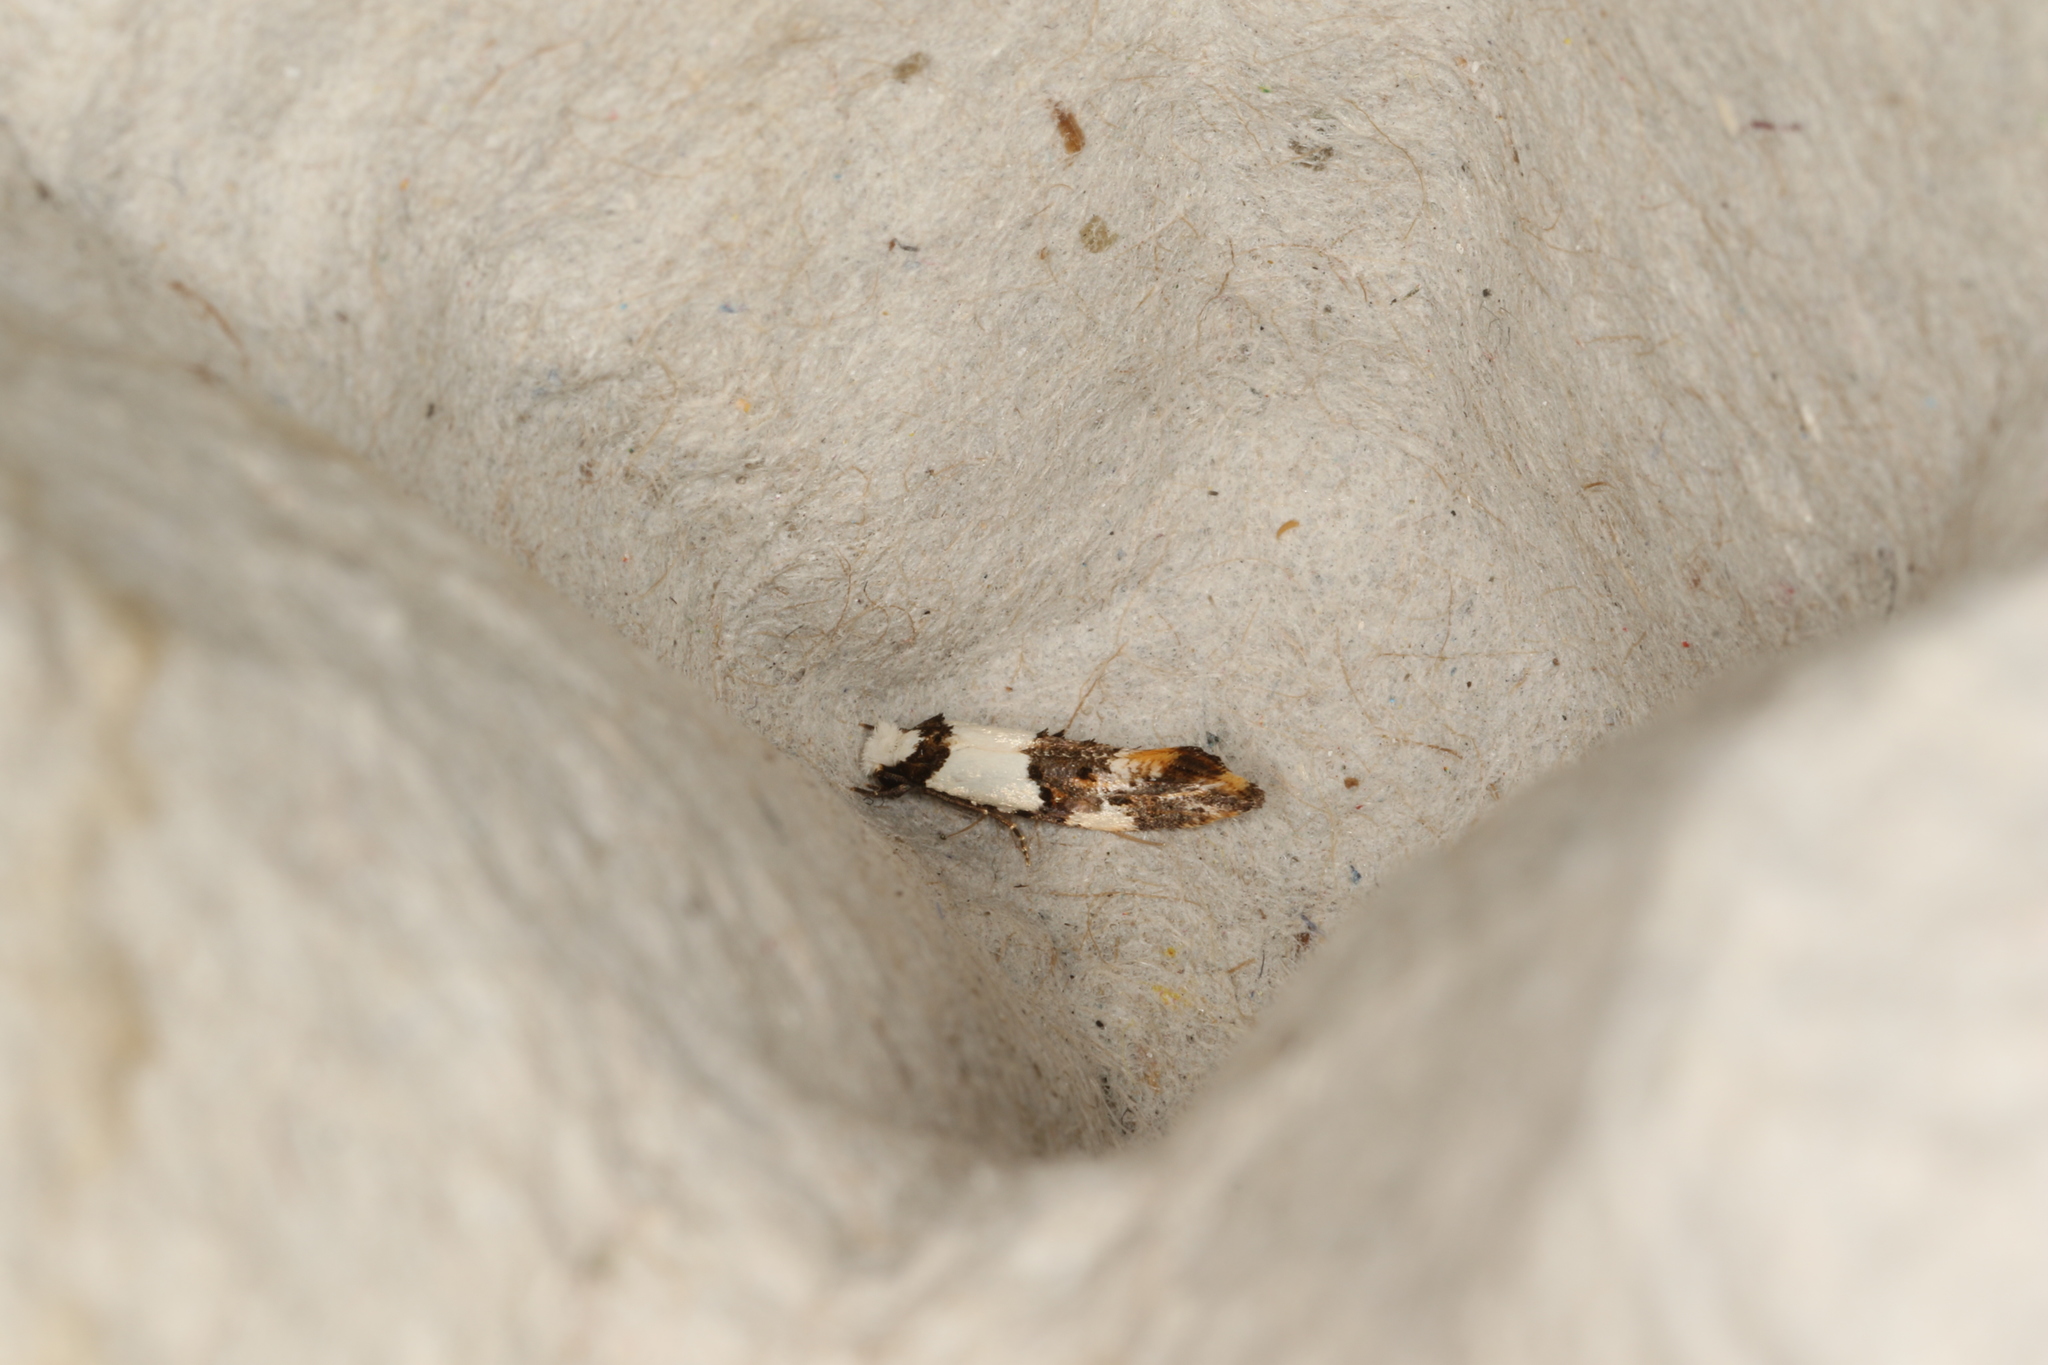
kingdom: Animalia
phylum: Arthropoda
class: Insecta
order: Lepidoptera
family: Tineidae
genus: Monopis
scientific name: Monopis meliorella
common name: Blotched monopis moth
